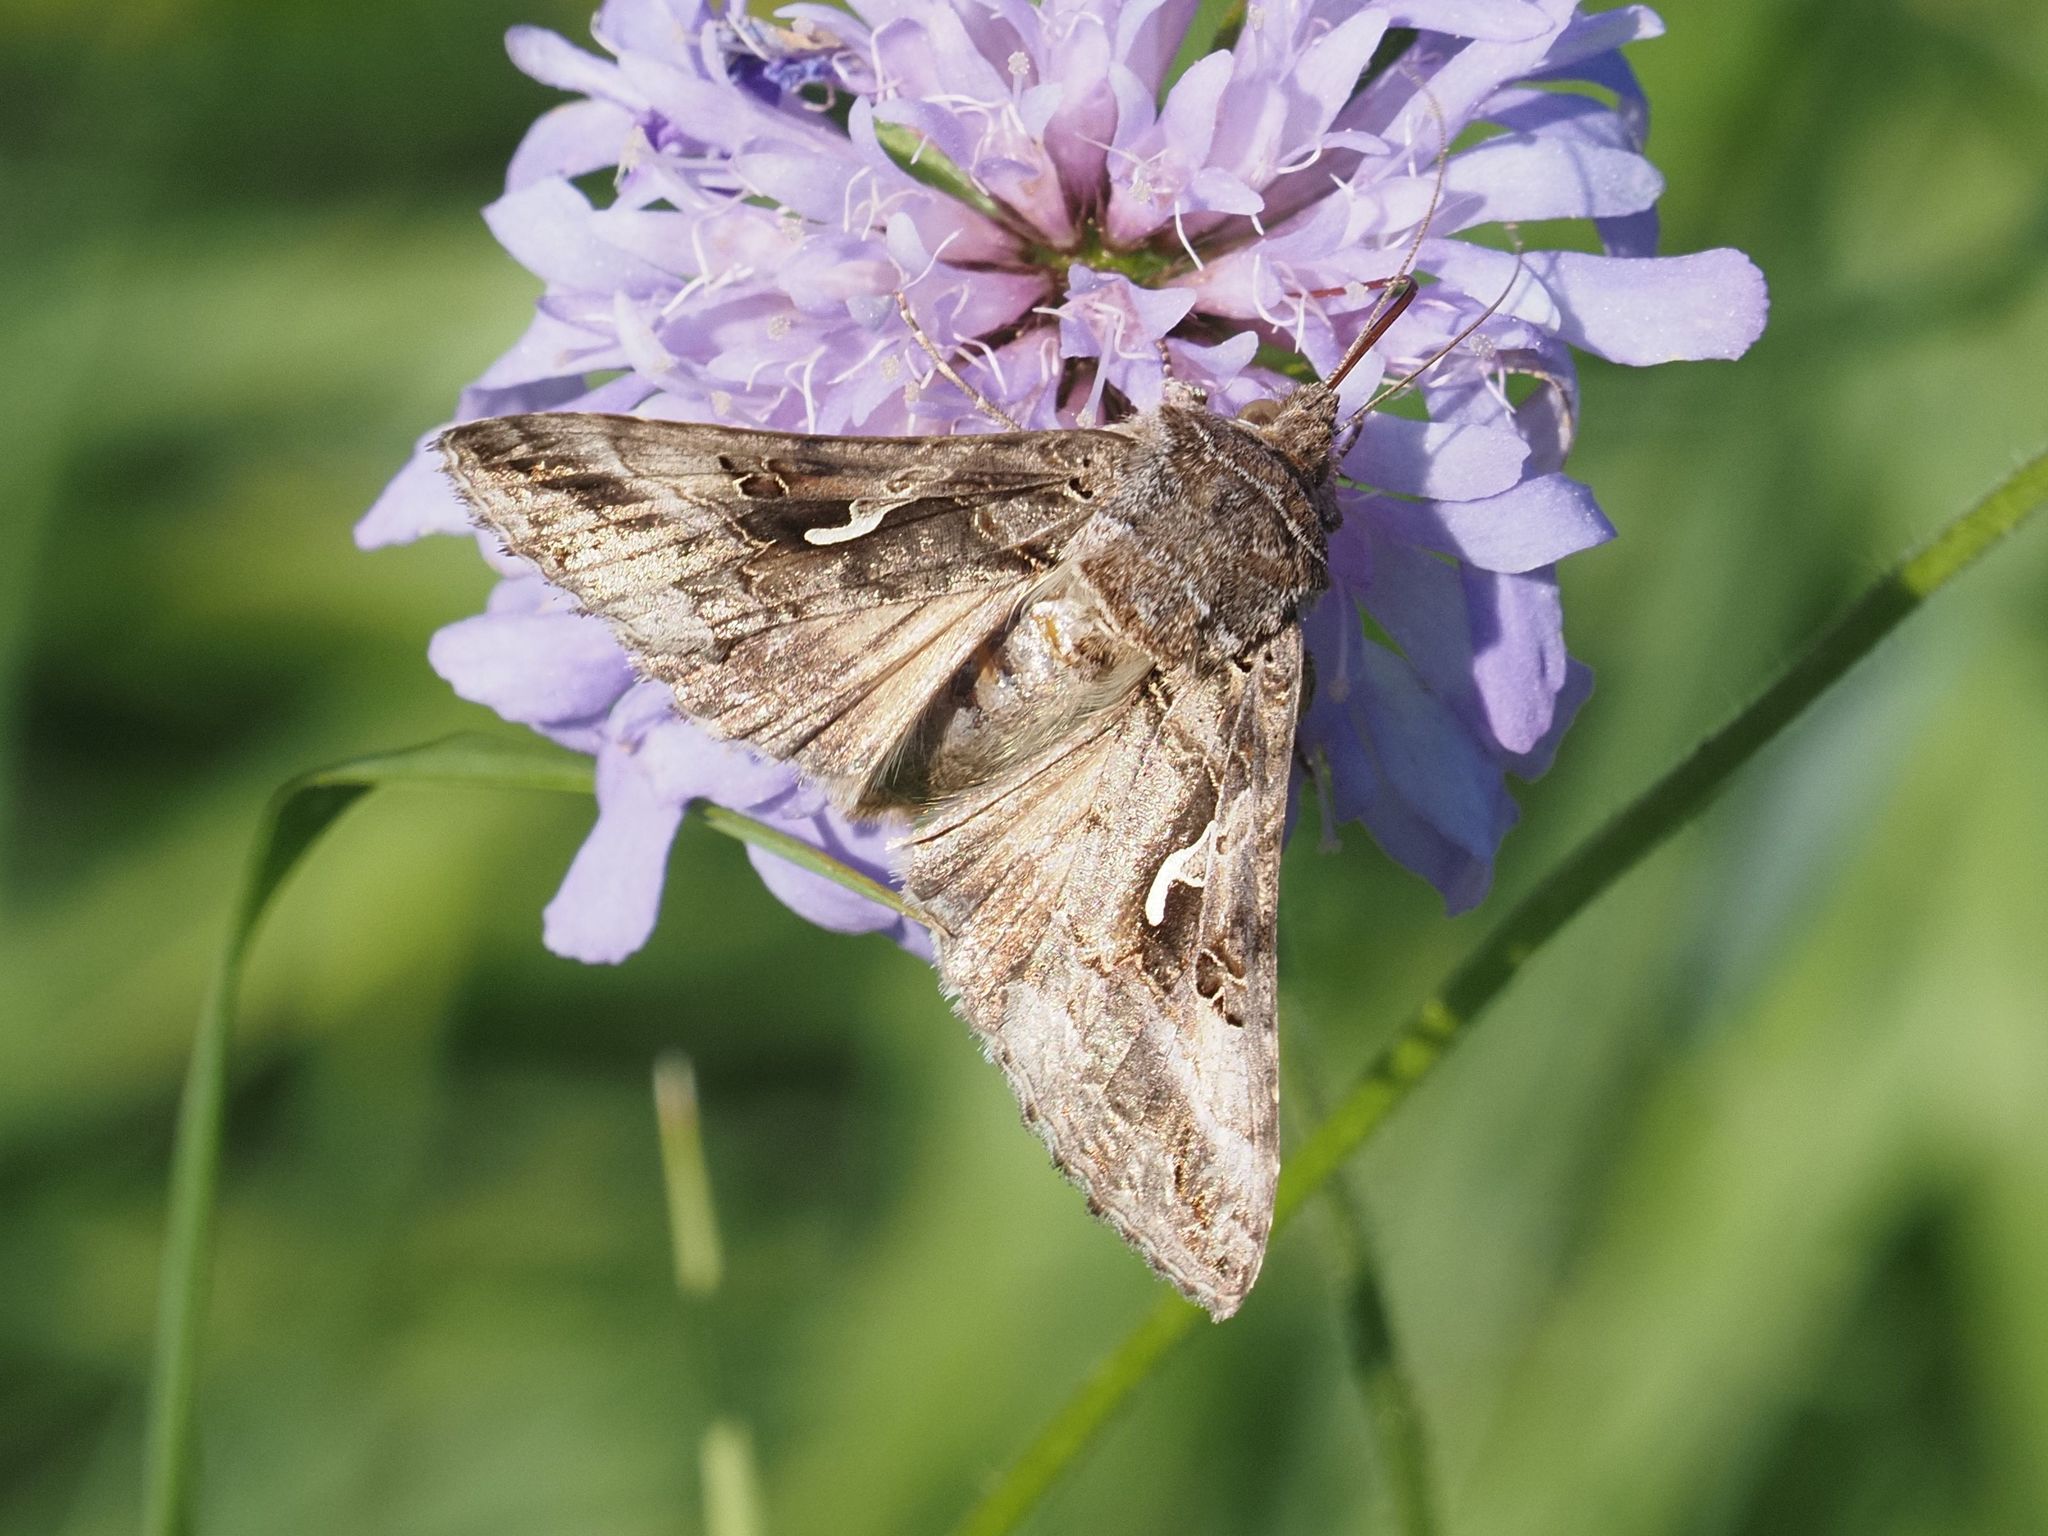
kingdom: Animalia
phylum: Arthropoda
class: Insecta
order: Lepidoptera
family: Noctuidae
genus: Autographa
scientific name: Autographa gamma
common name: Silver y
